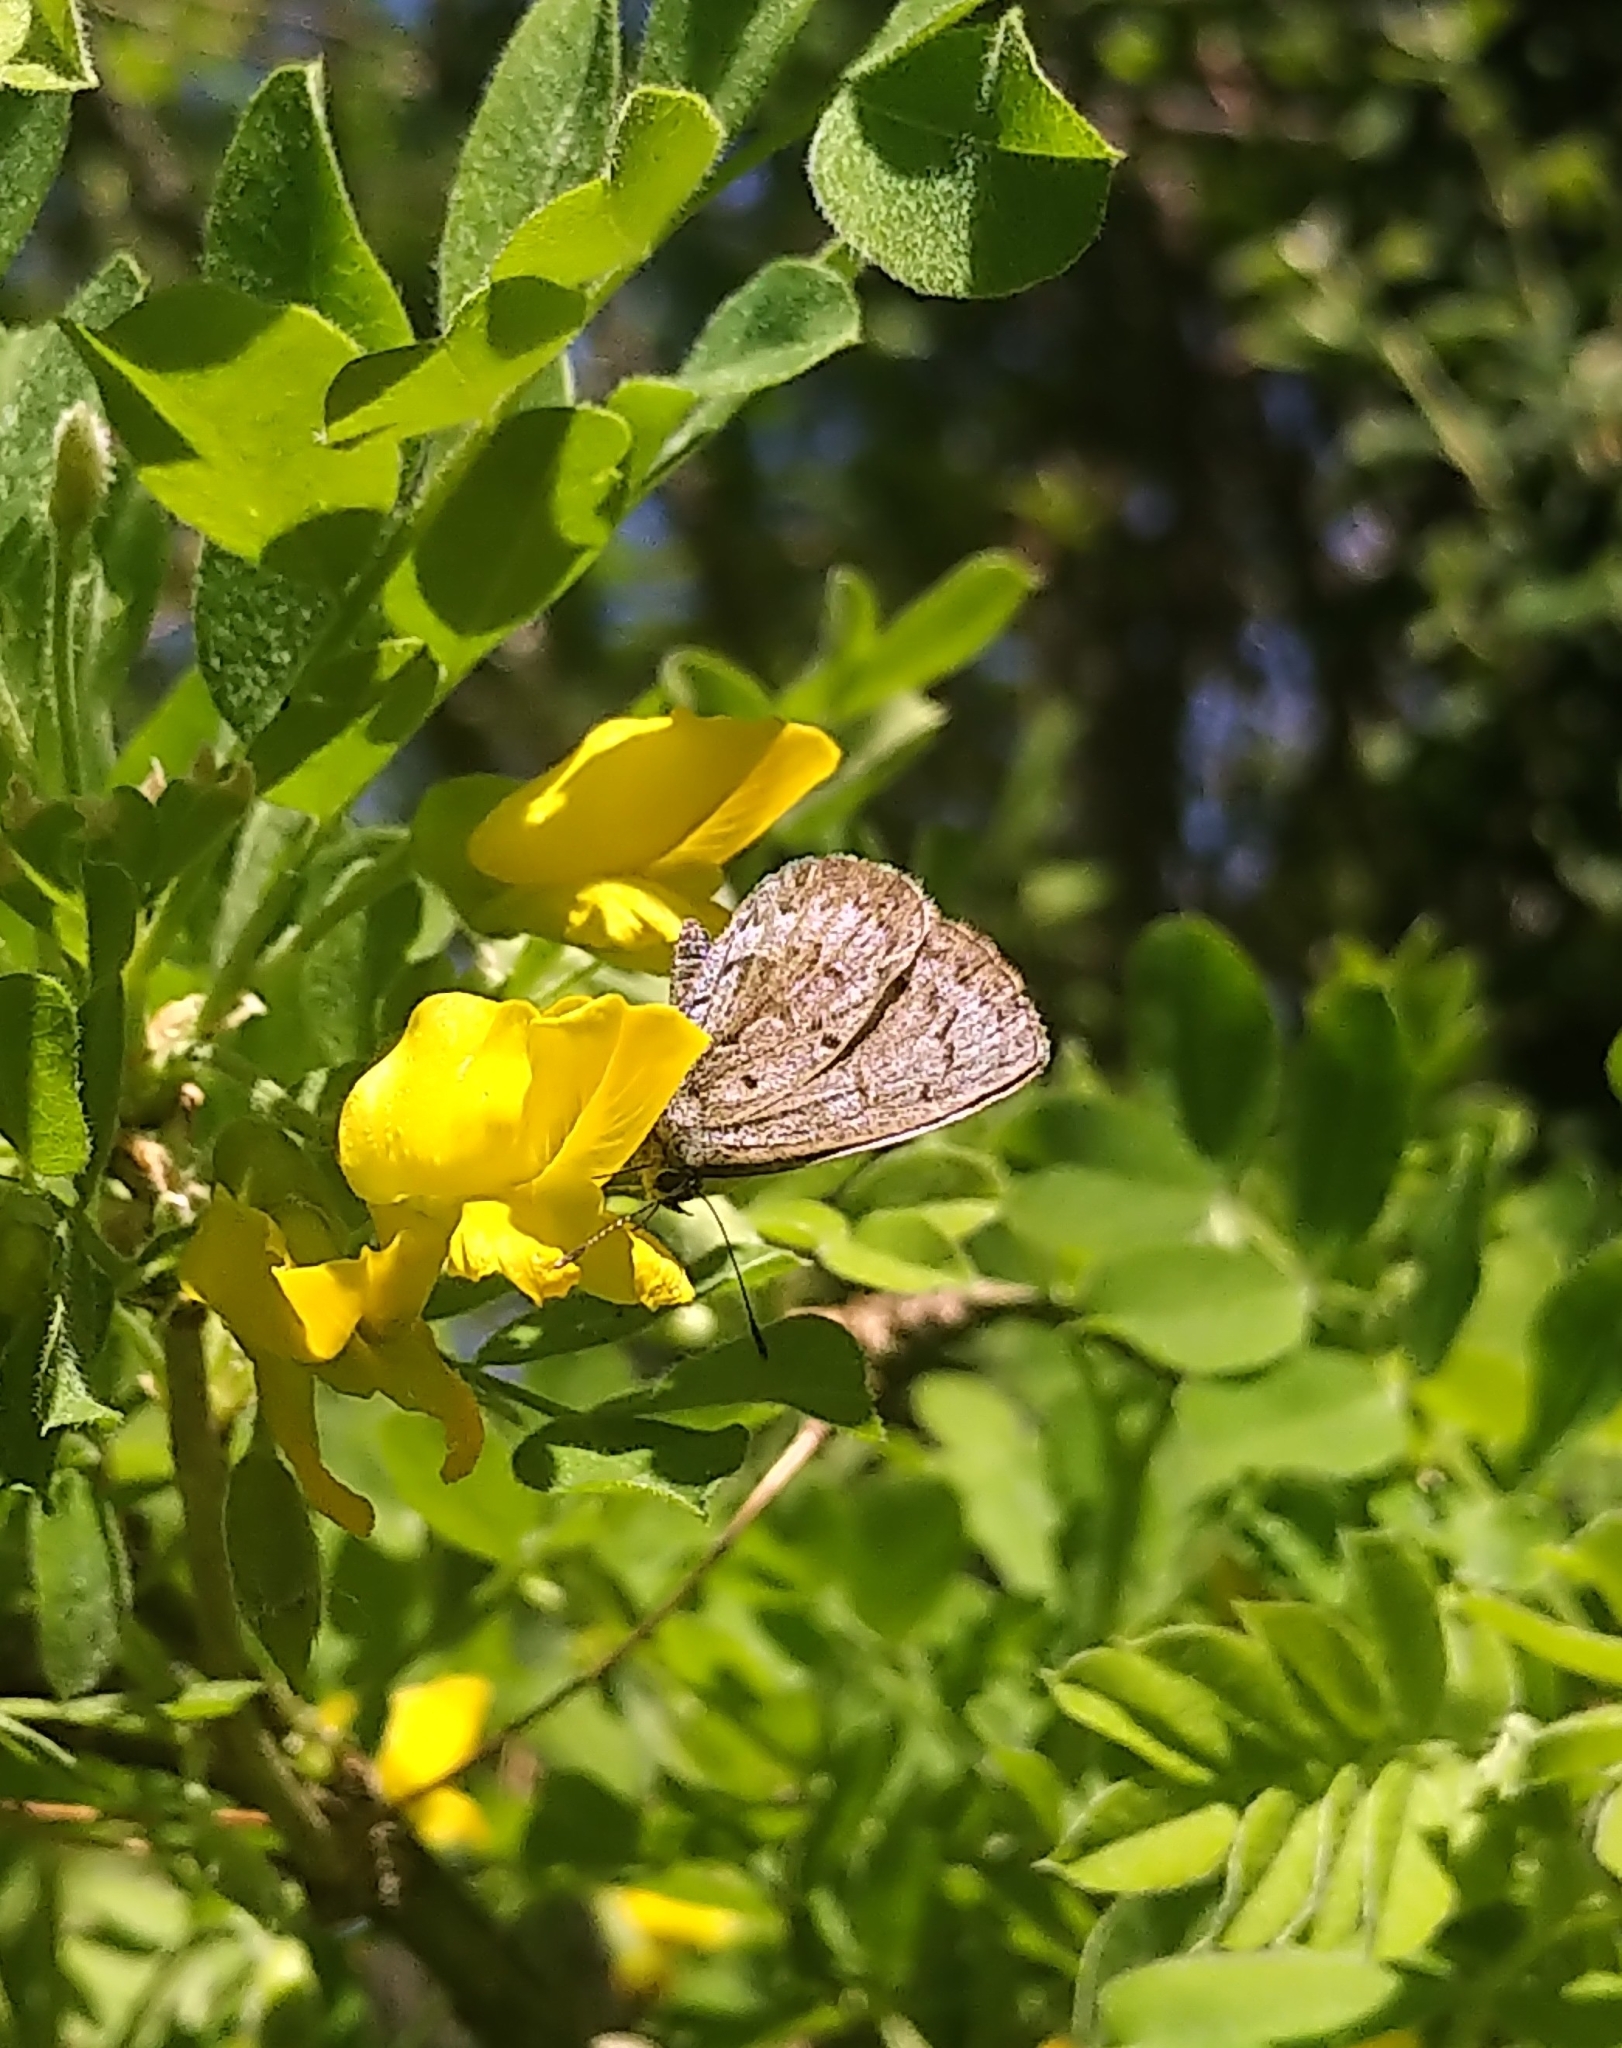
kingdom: Animalia
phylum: Arthropoda
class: Insecta
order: Lepidoptera
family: Lycaenidae
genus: Celastrina
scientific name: Celastrina lucia
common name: Lucia azure
